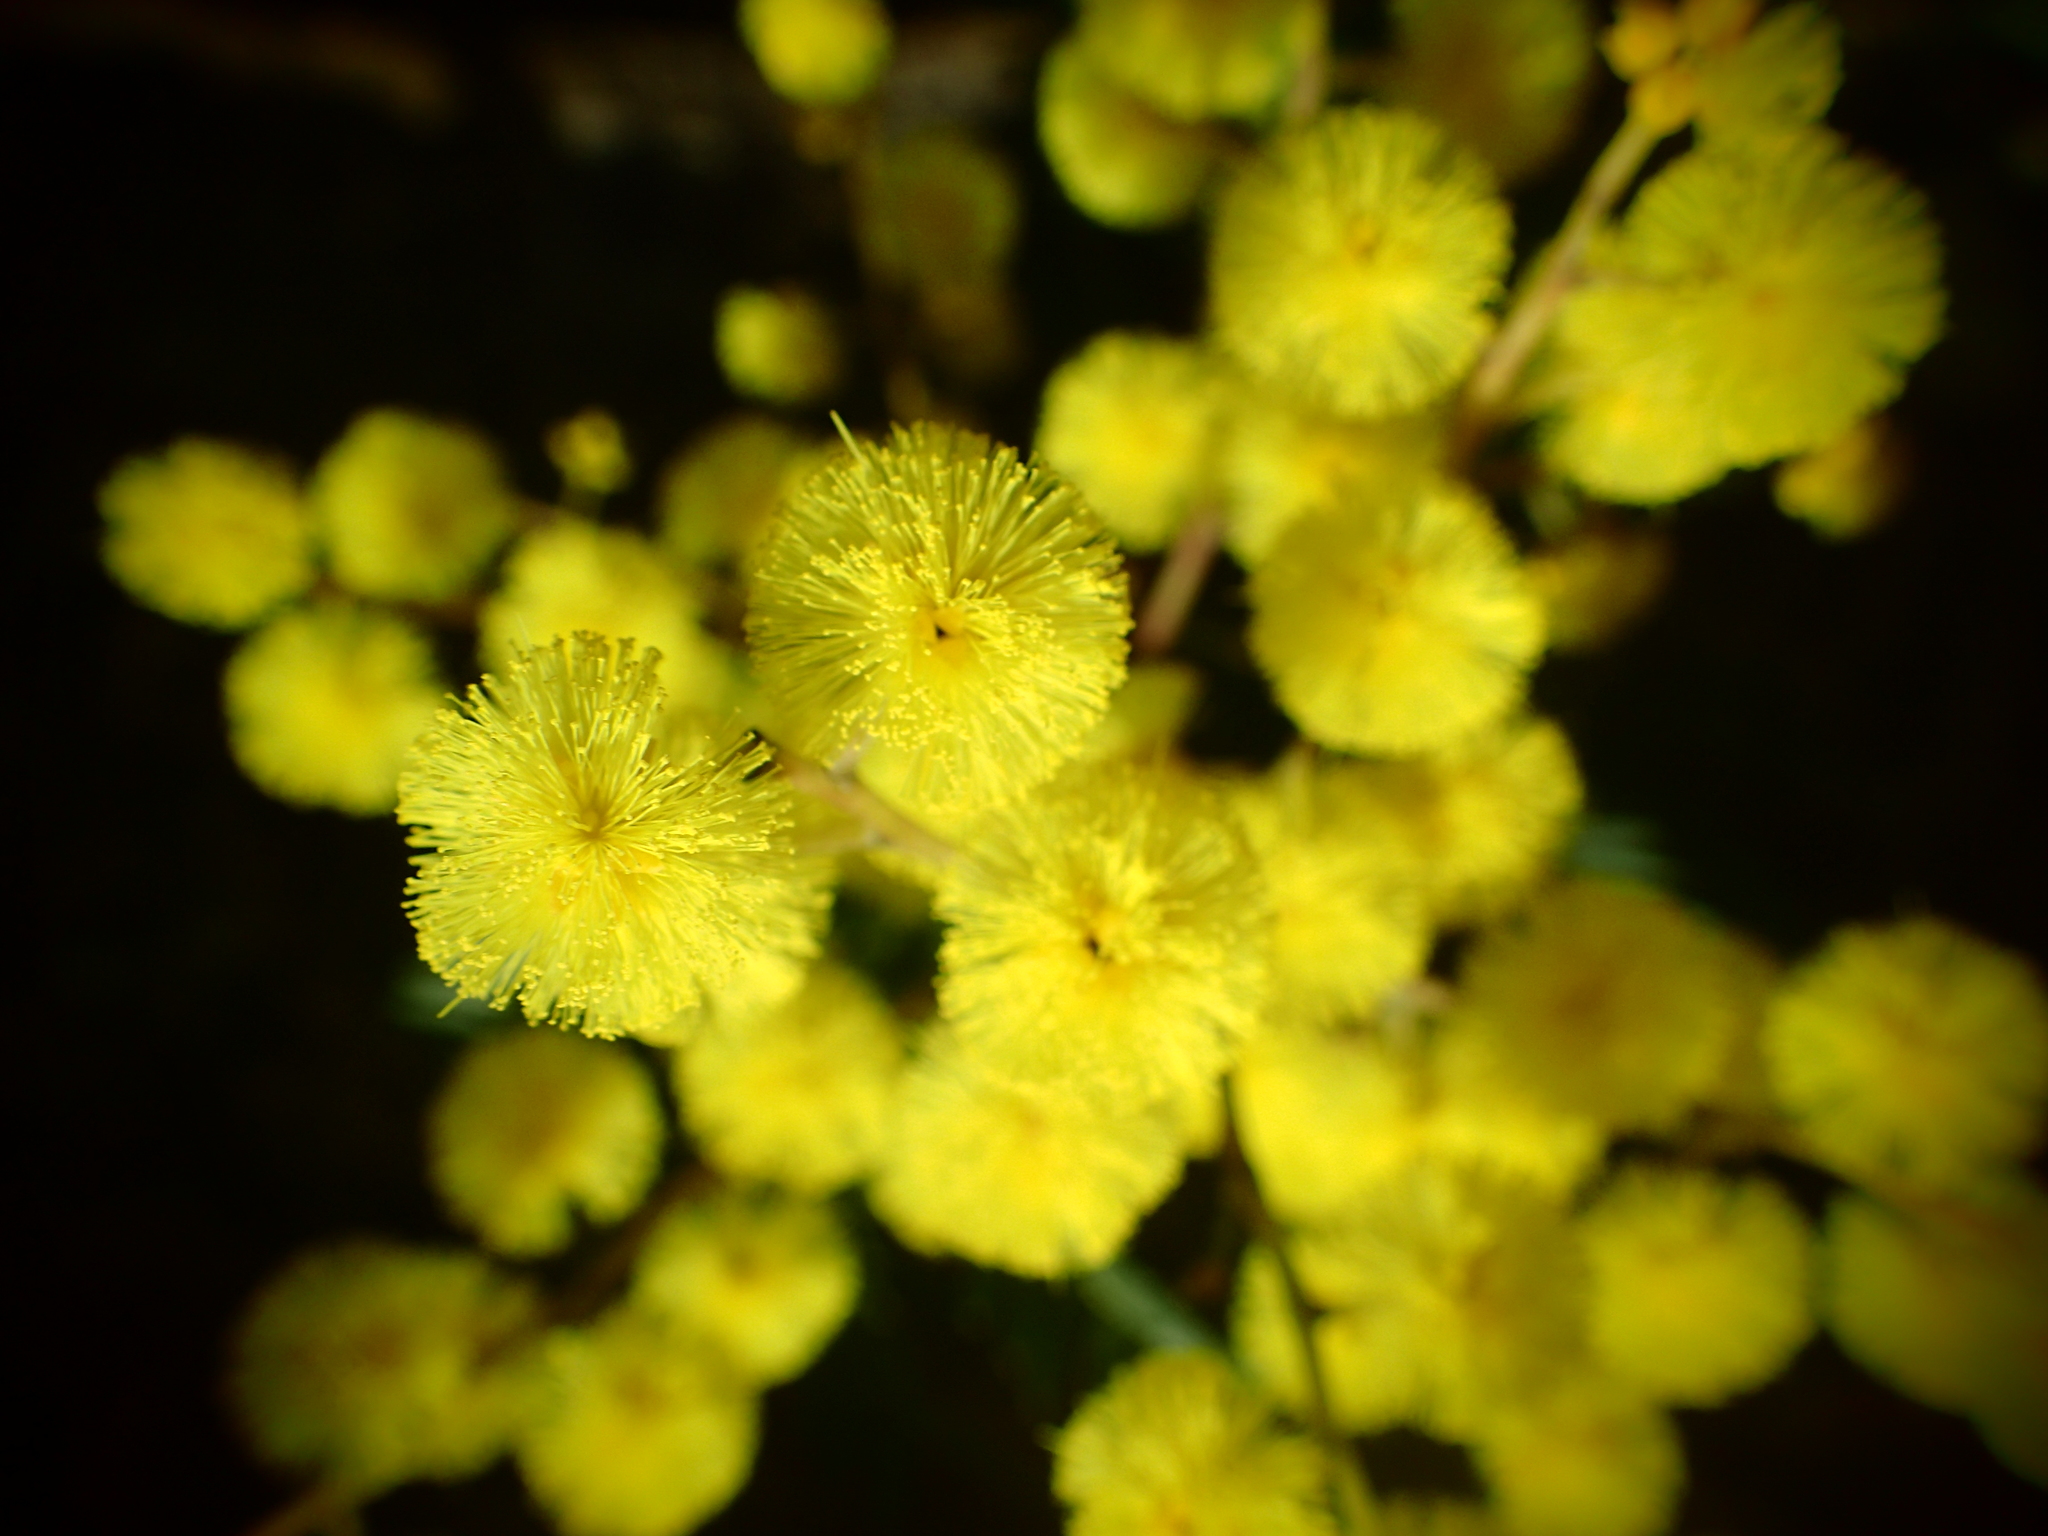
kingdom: Plantae
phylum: Tracheophyta
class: Magnoliopsida
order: Fabales
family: Fabaceae
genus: Acacia
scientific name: Acacia terminalis
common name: Cedar wattle
